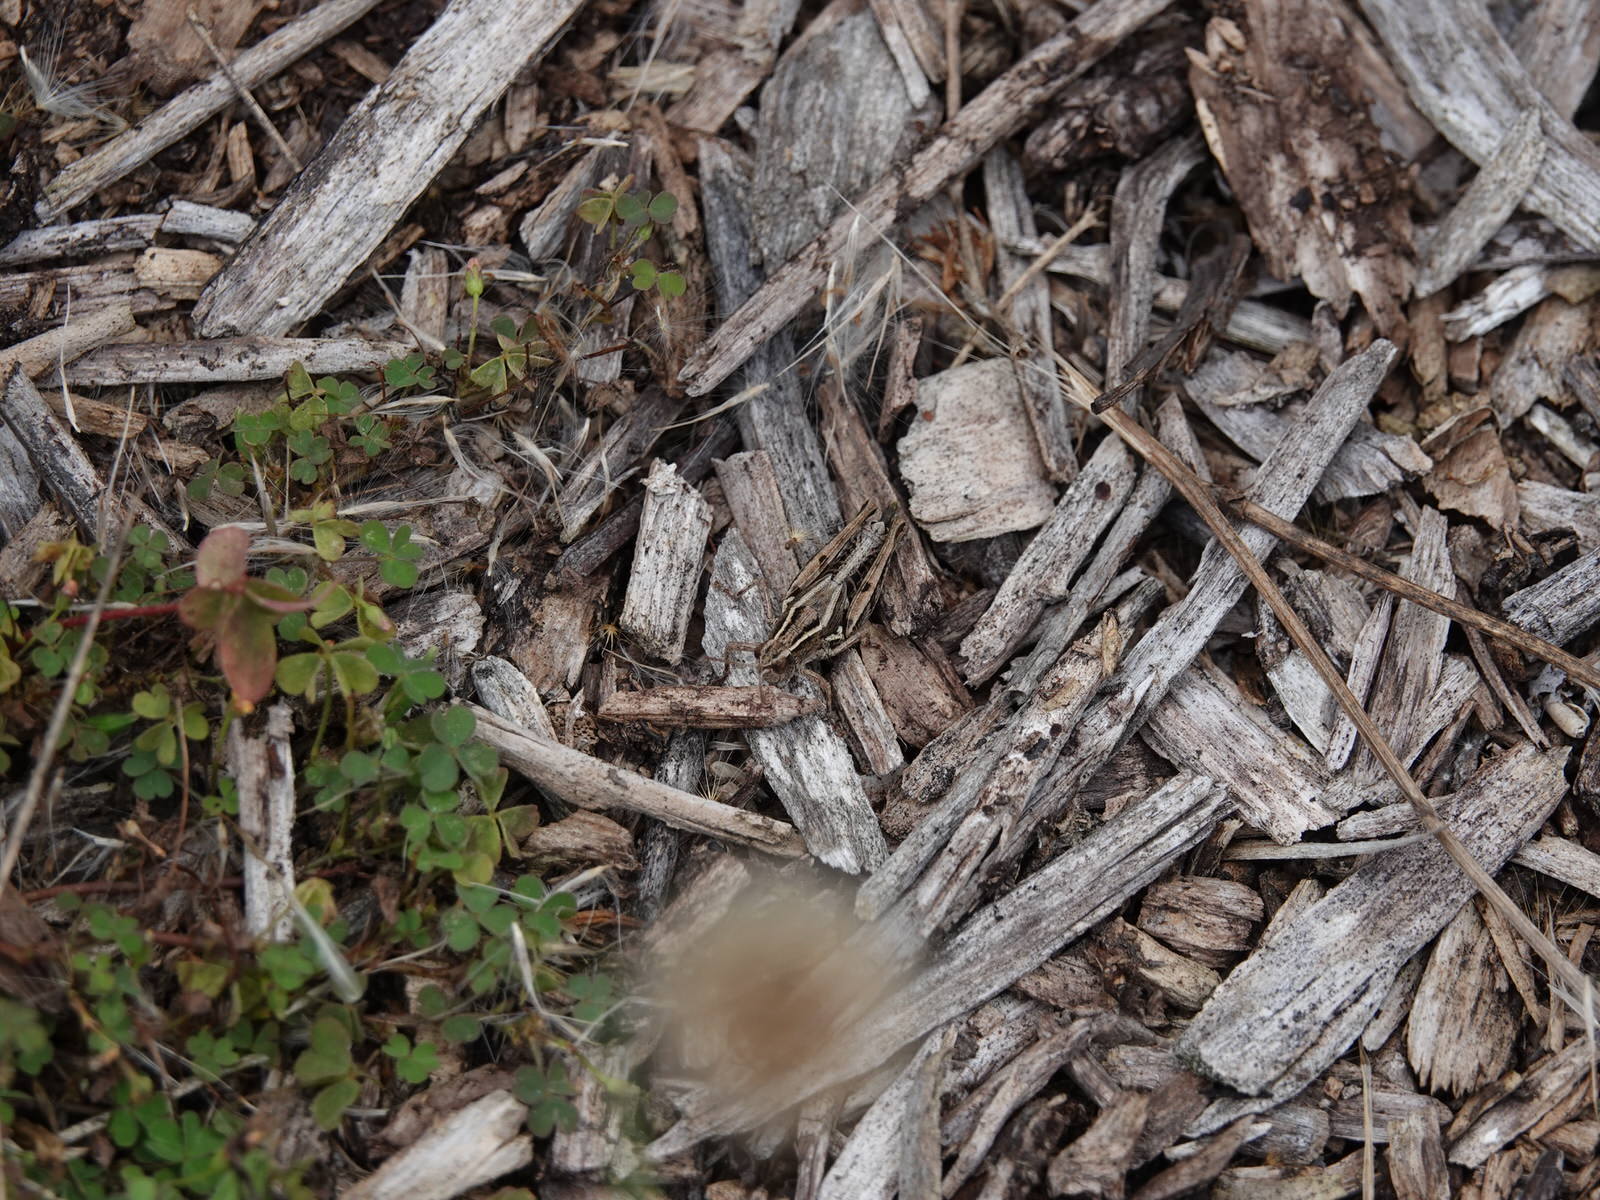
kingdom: Animalia
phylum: Arthropoda
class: Insecta
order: Orthoptera
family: Acrididae
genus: Phaulacridium
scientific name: Phaulacridium marginale
